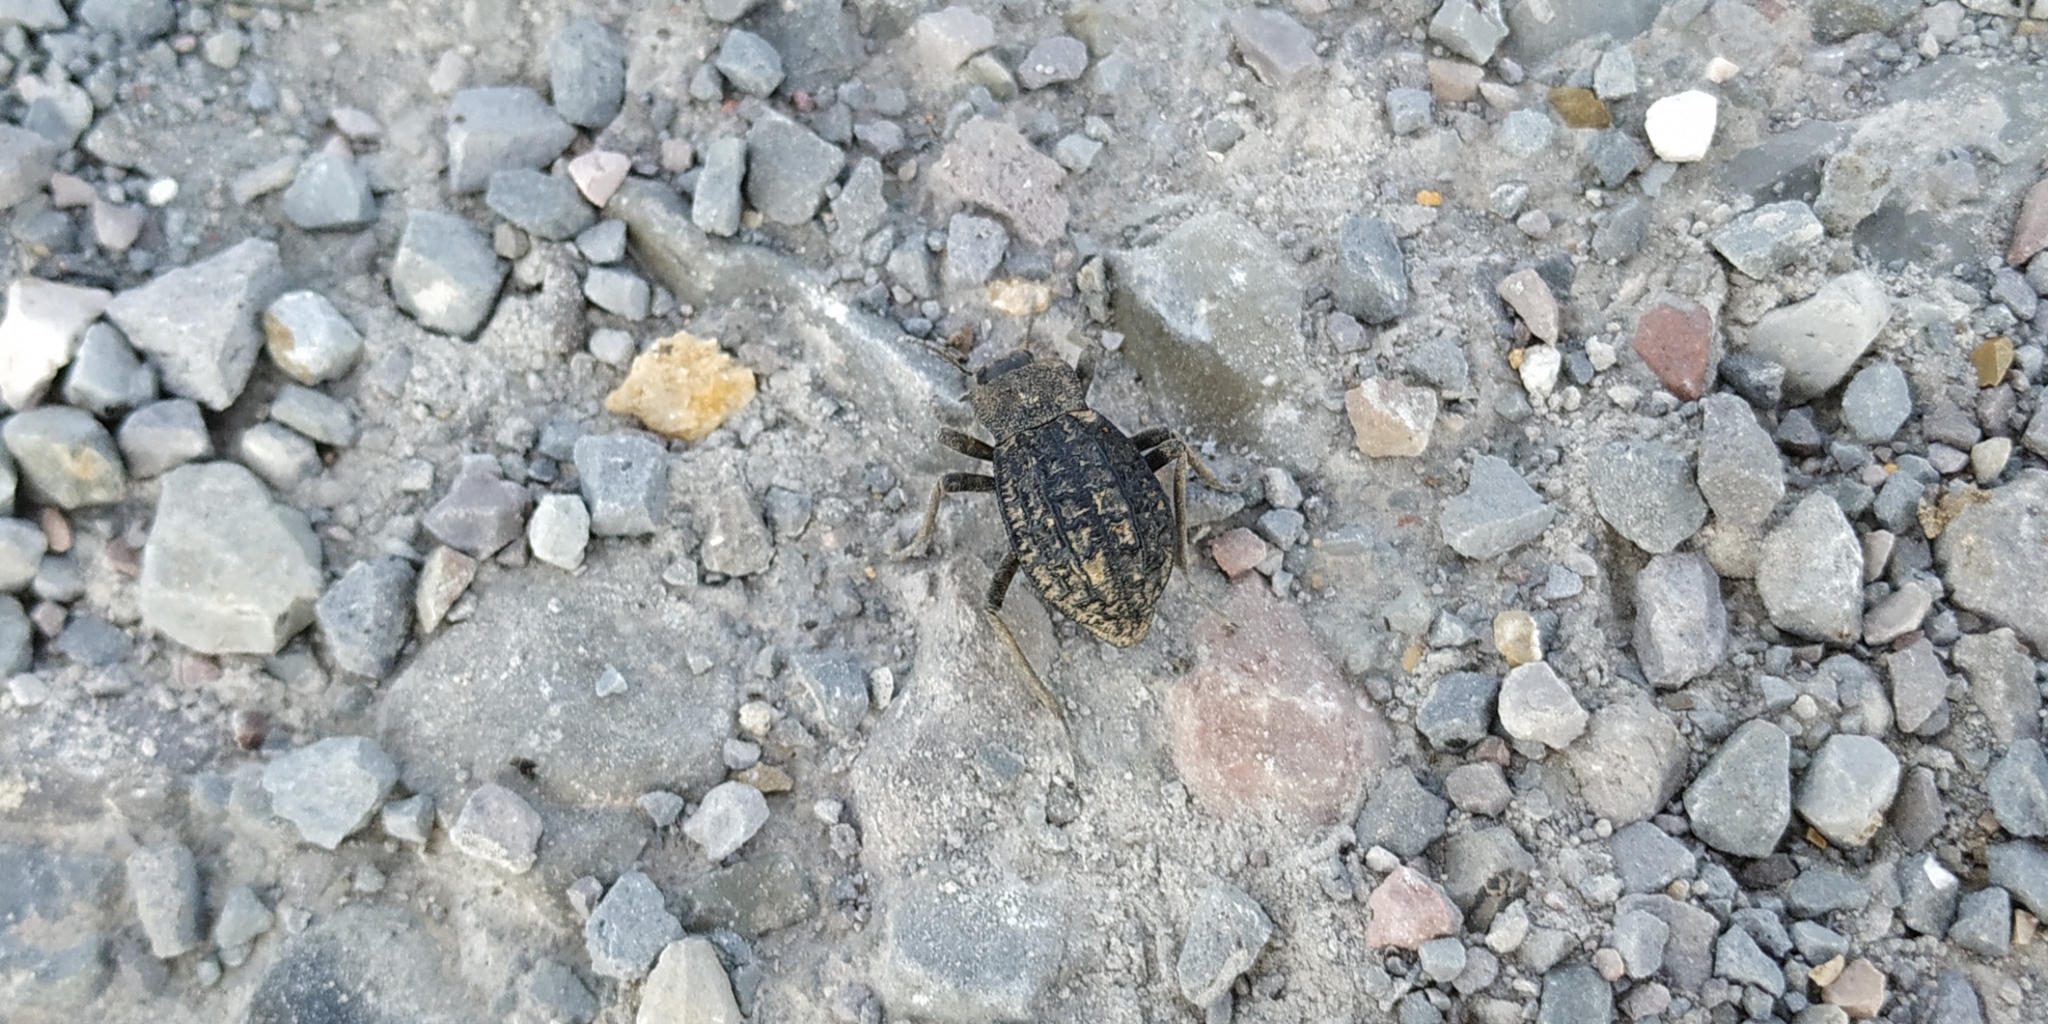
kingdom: Animalia
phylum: Arthropoda
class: Insecta
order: Coleoptera
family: Tenebrionidae
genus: Philolithus
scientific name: Philolithus rugosissimus
